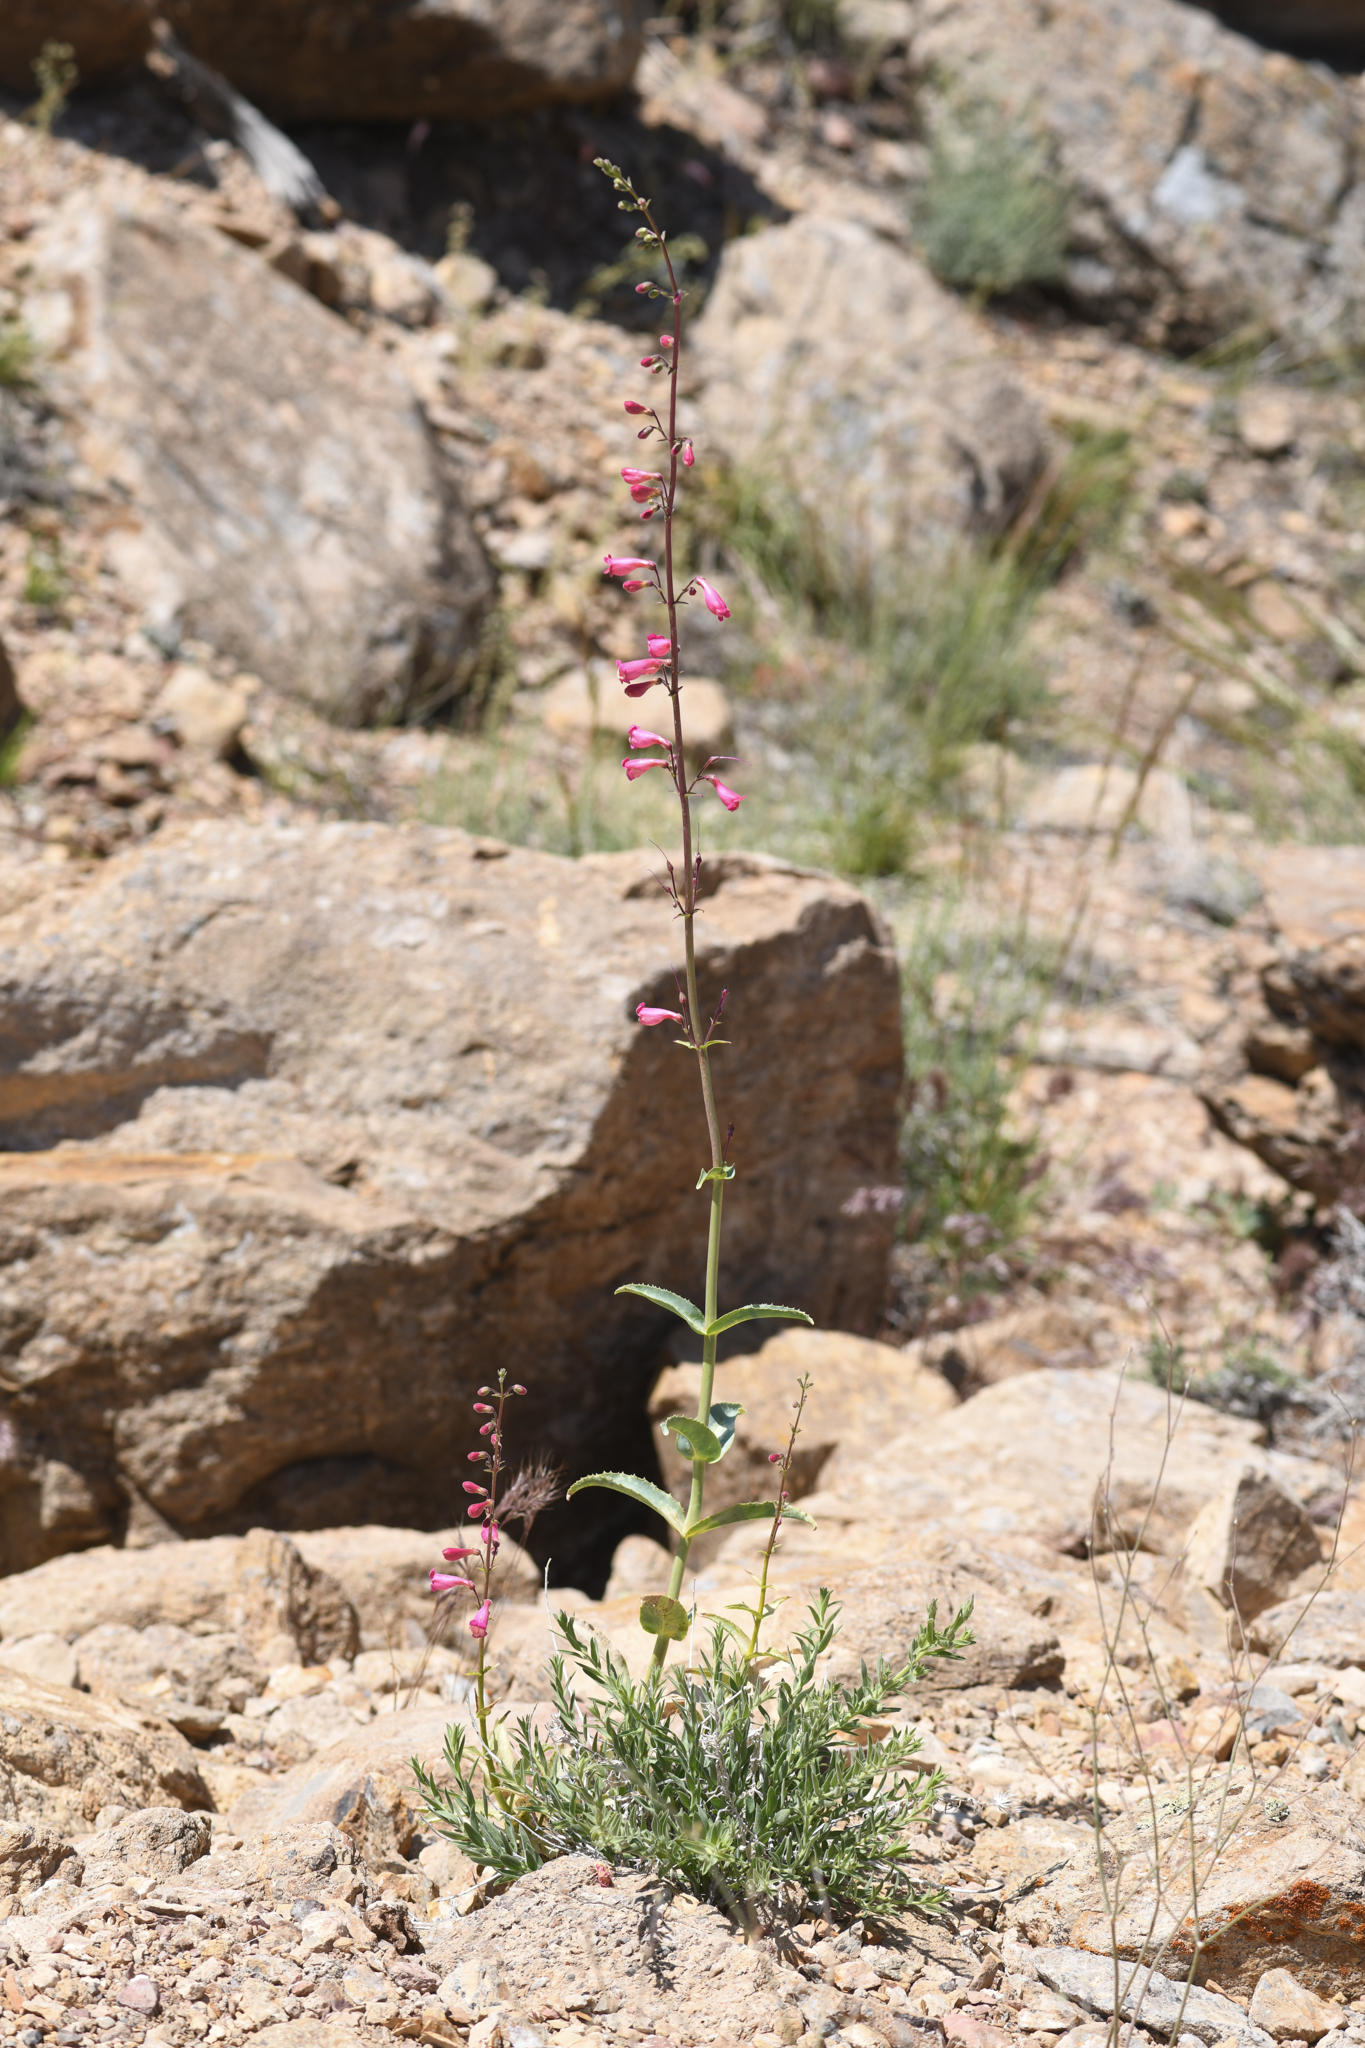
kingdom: Plantae
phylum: Tracheophyta
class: Magnoliopsida
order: Lamiales
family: Plantaginaceae
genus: Penstemon
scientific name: Penstemon floridus
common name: Panamint penstemon
